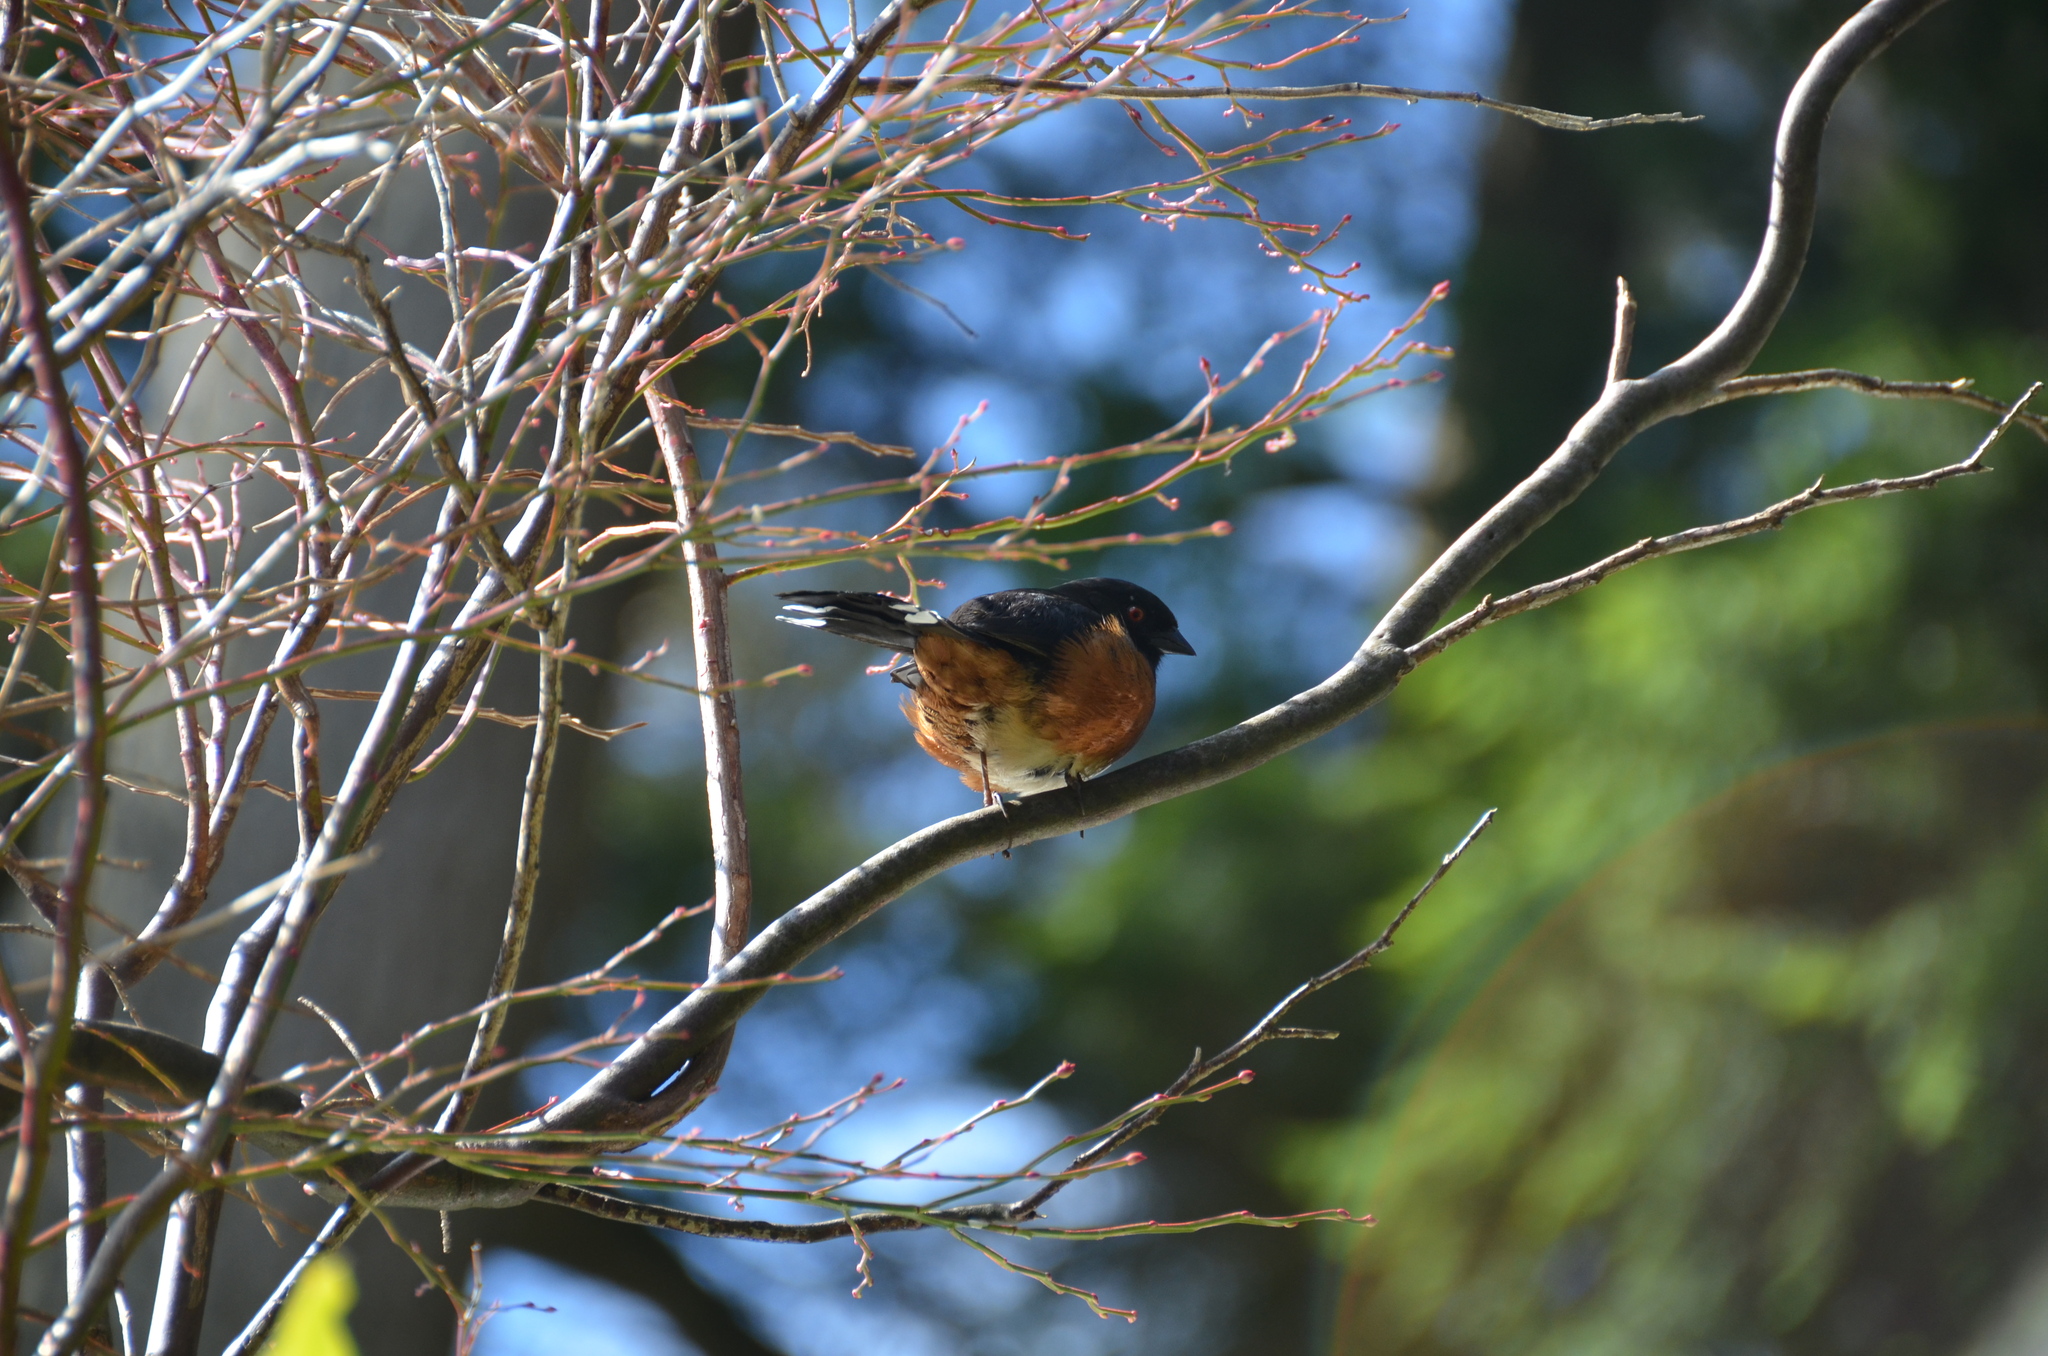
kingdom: Animalia
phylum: Chordata
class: Aves
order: Passeriformes
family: Passerellidae
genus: Pipilo
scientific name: Pipilo maculatus
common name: Spotted towhee
